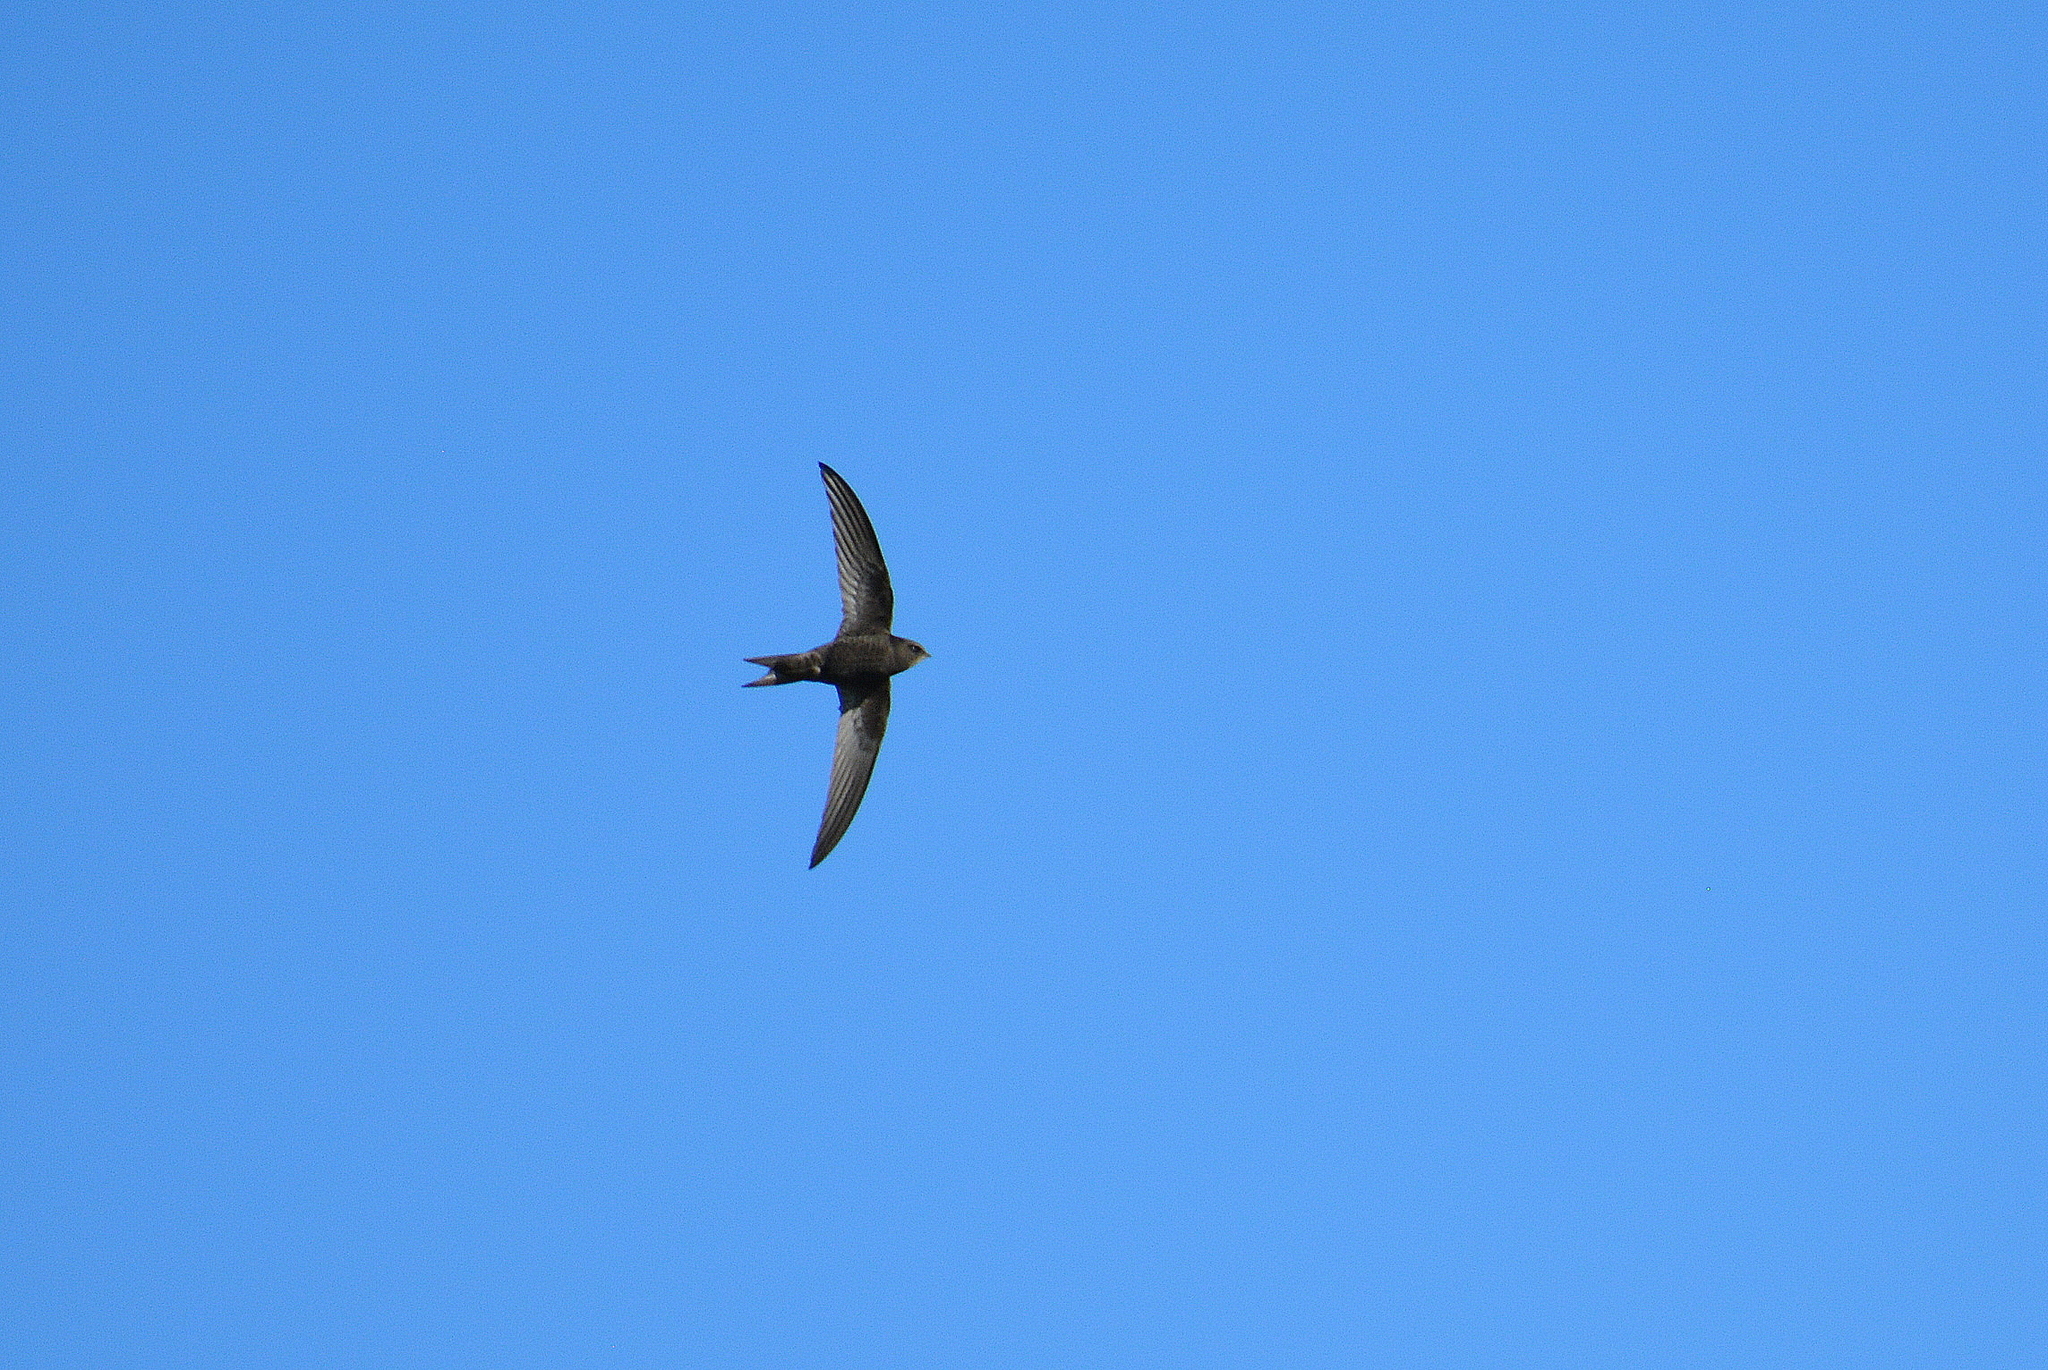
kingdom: Animalia
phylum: Chordata
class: Aves
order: Apodiformes
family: Apodidae
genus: Apus
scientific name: Apus apus
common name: Common swift
